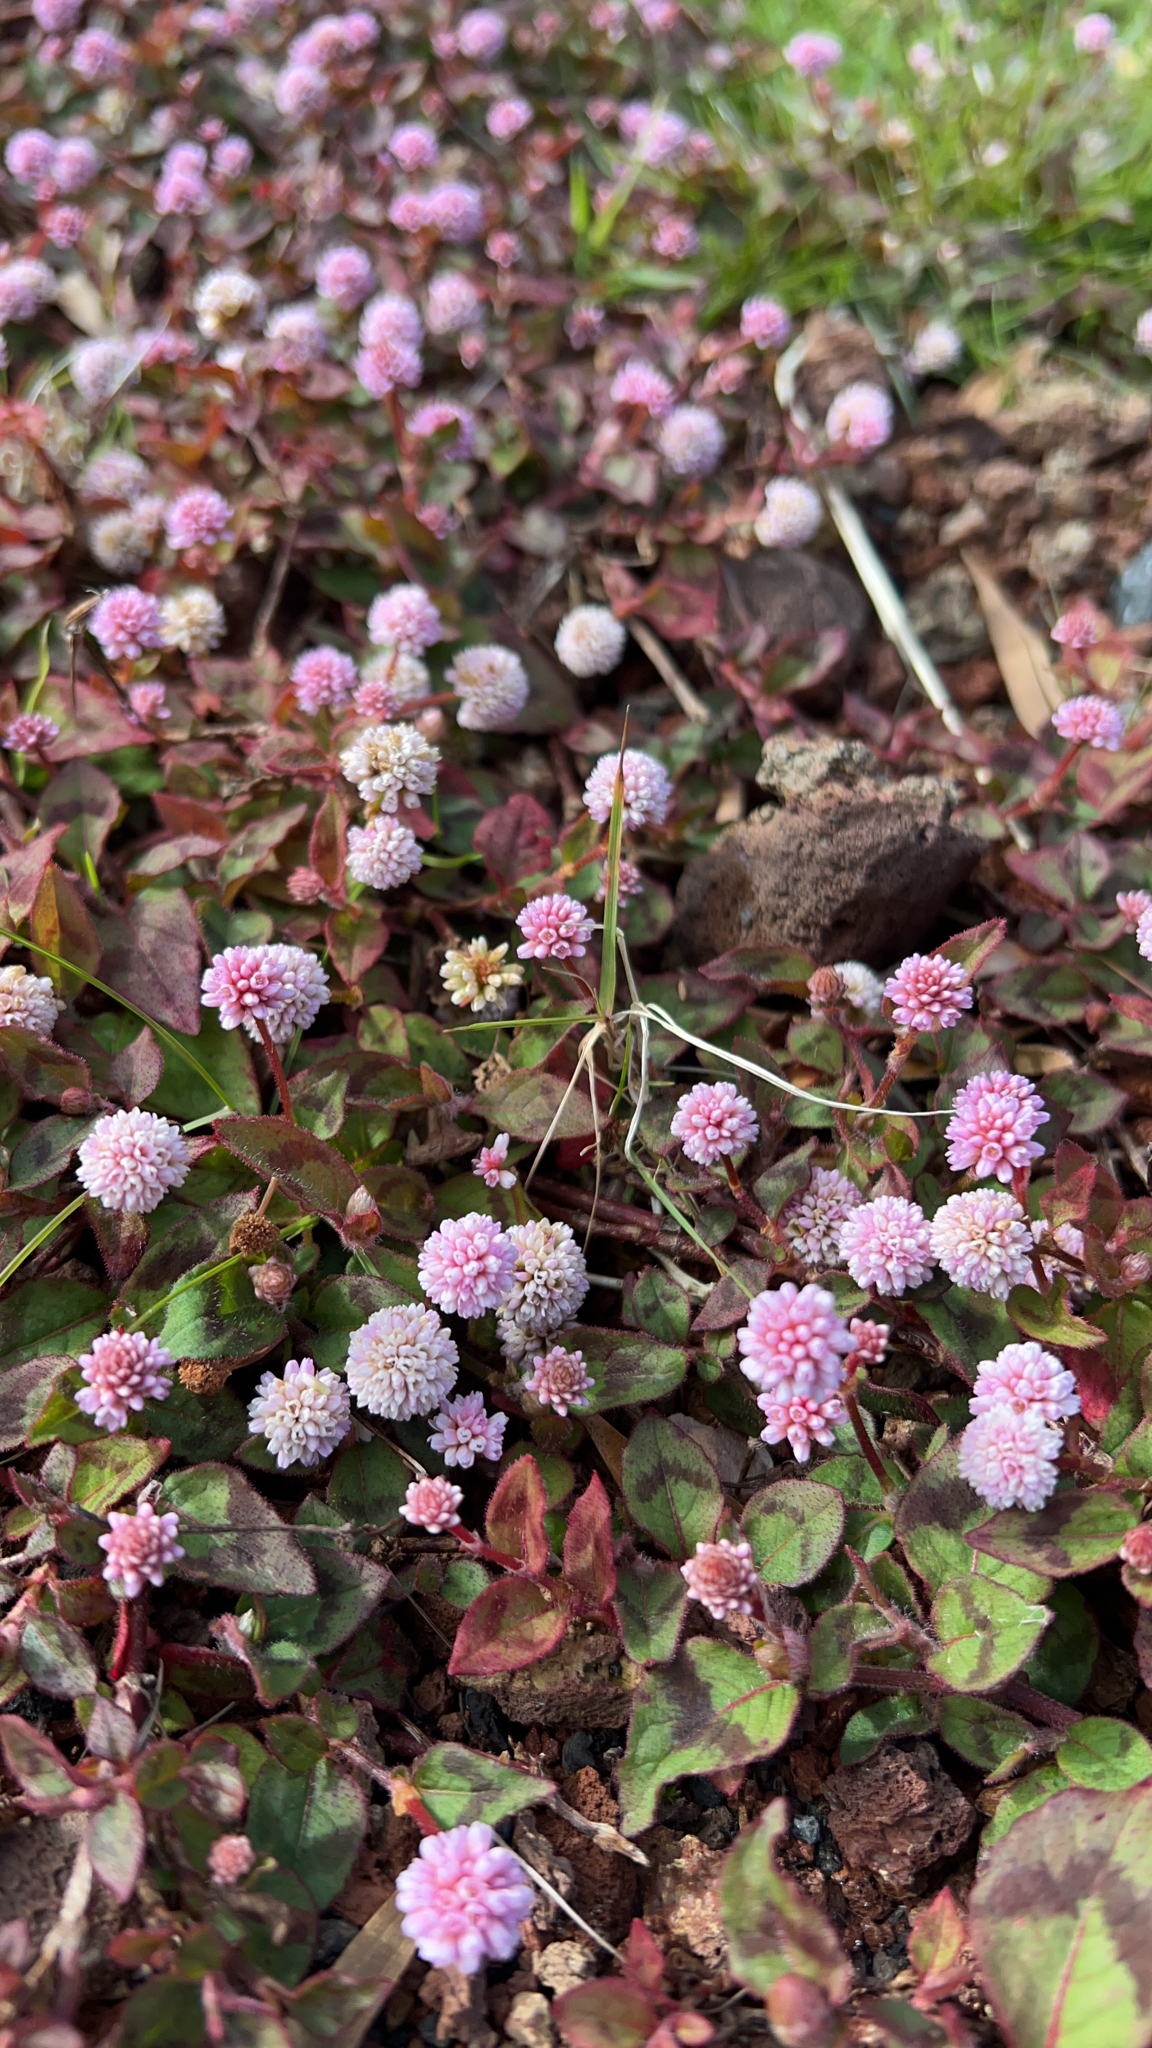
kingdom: Plantae
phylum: Tracheophyta
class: Magnoliopsida
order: Caryophyllales
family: Polygonaceae
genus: Persicaria
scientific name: Persicaria capitata
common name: Pinkhead smartweed
